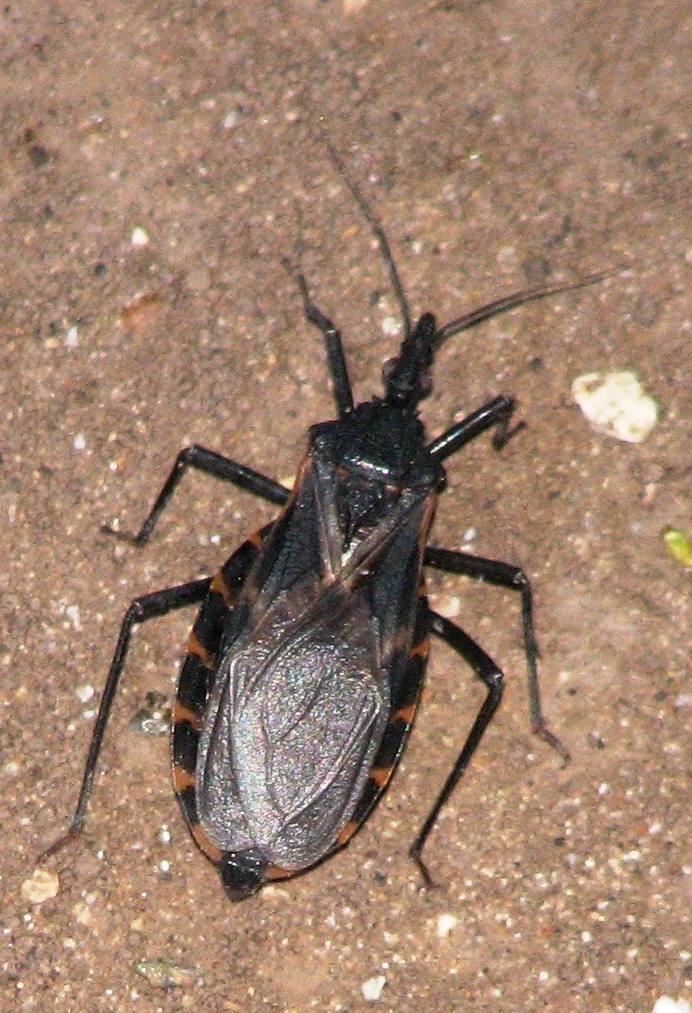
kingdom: Animalia
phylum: Arthropoda
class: Insecta
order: Hemiptera
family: Reduviidae
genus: Triatoma
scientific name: Triatoma gerstaeckeri
